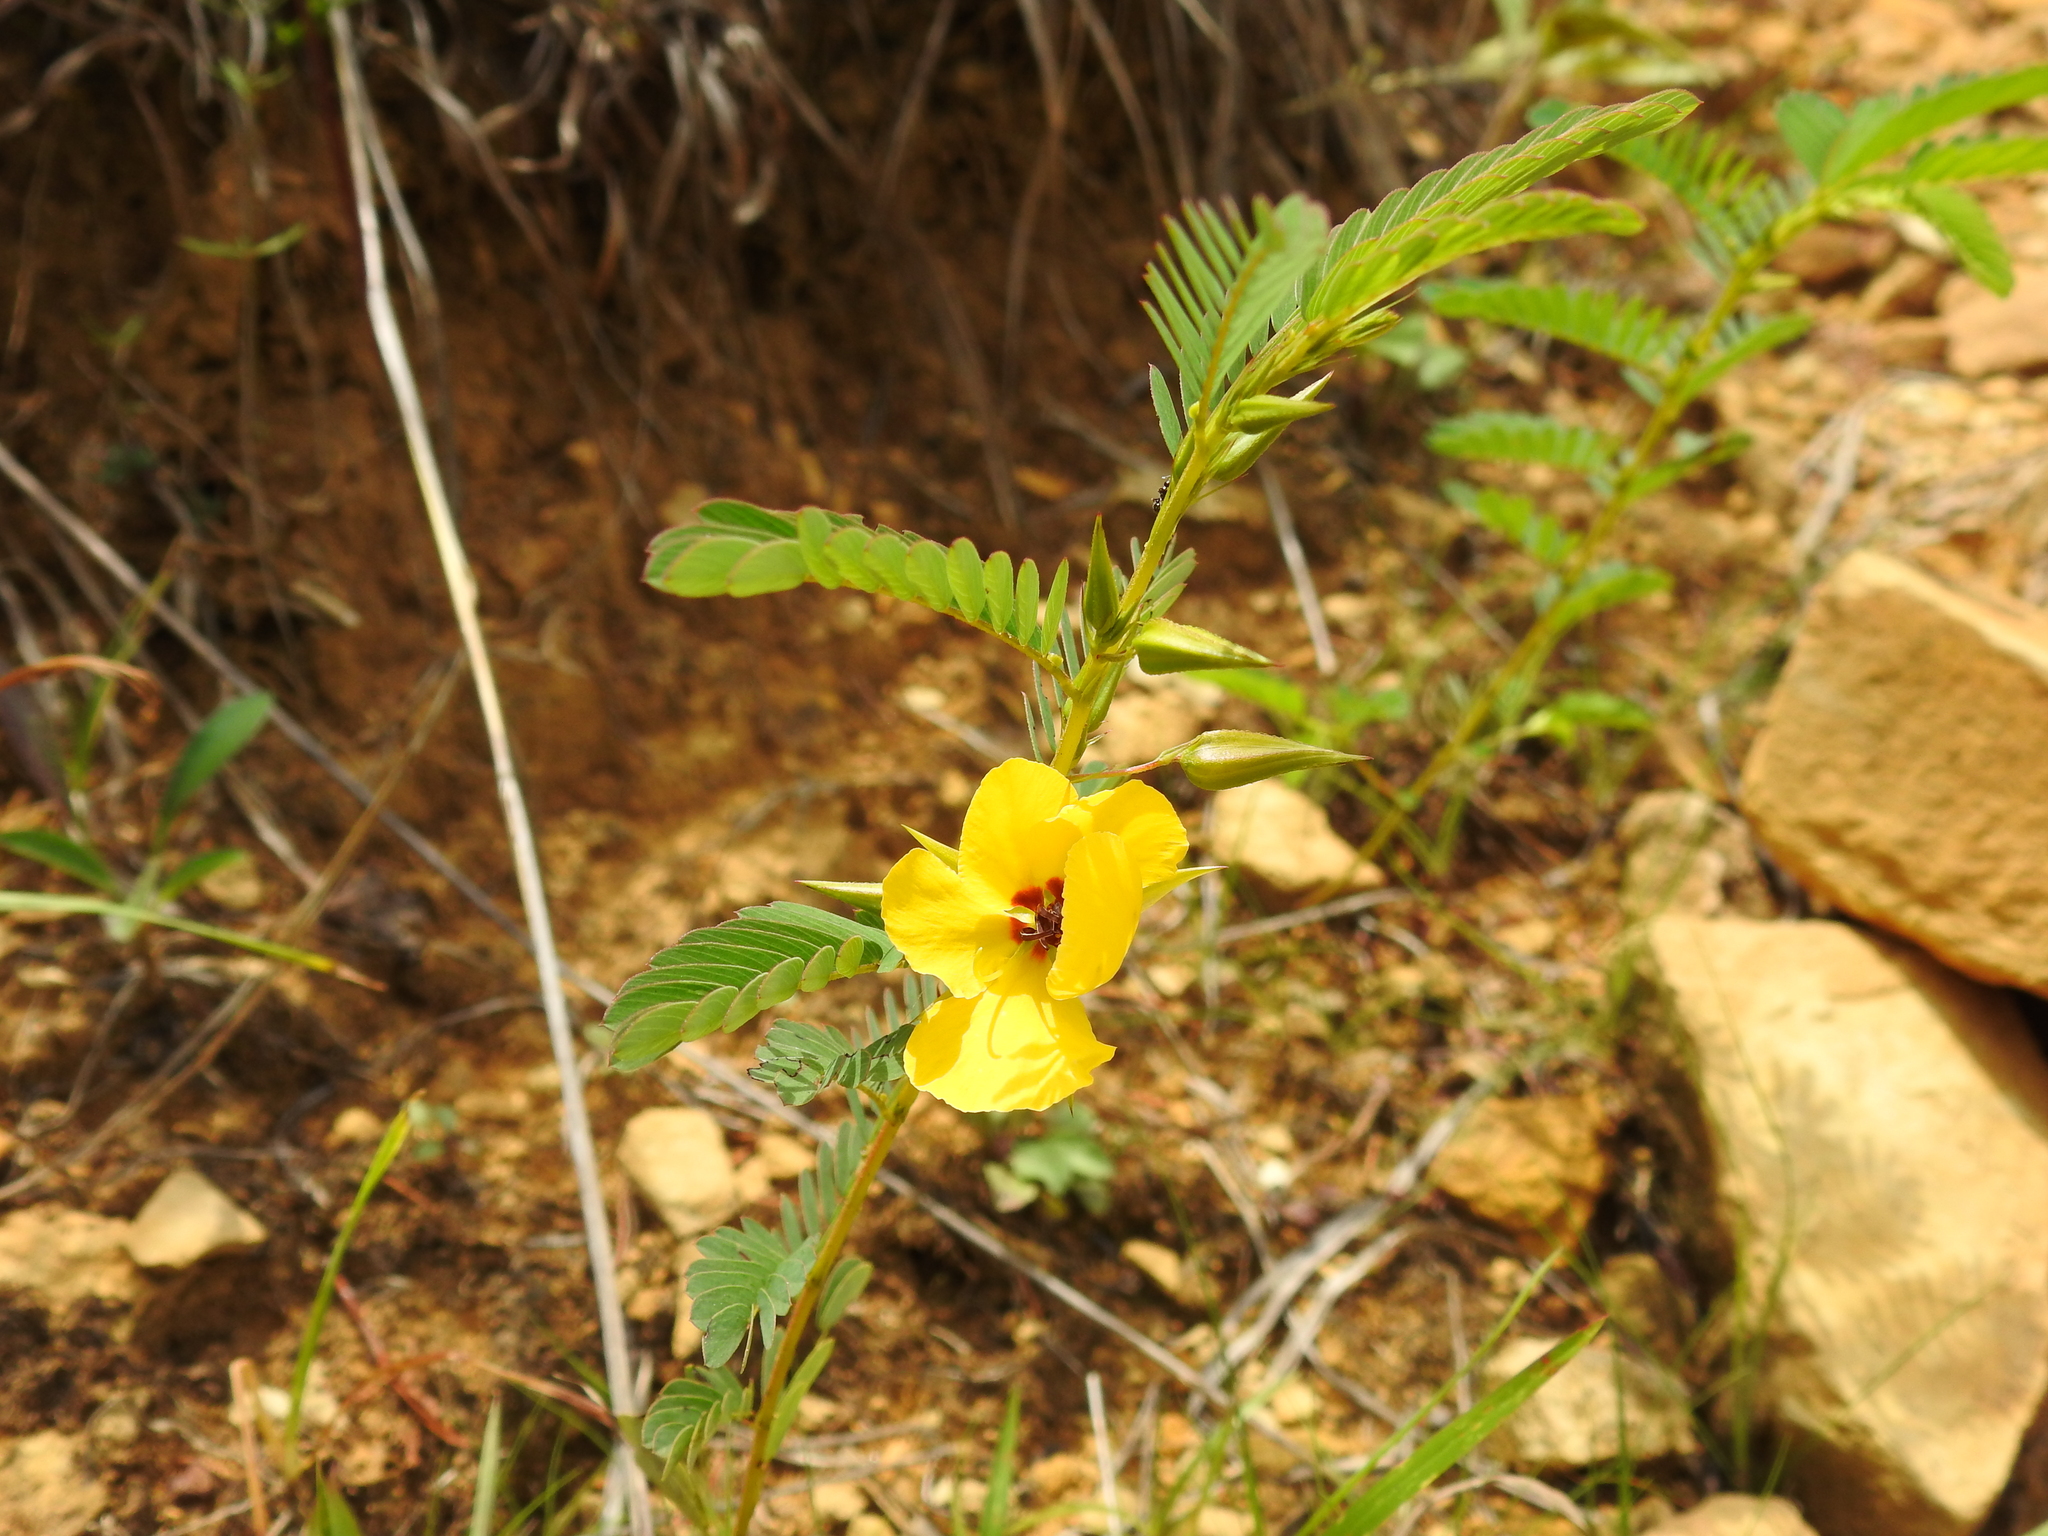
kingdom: Plantae
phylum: Tracheophyta
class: Magnoliopsida
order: Fabales
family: Fabaceae
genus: Chamaecrista
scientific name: Chamaecrista fasciculata
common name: Golden cassia
